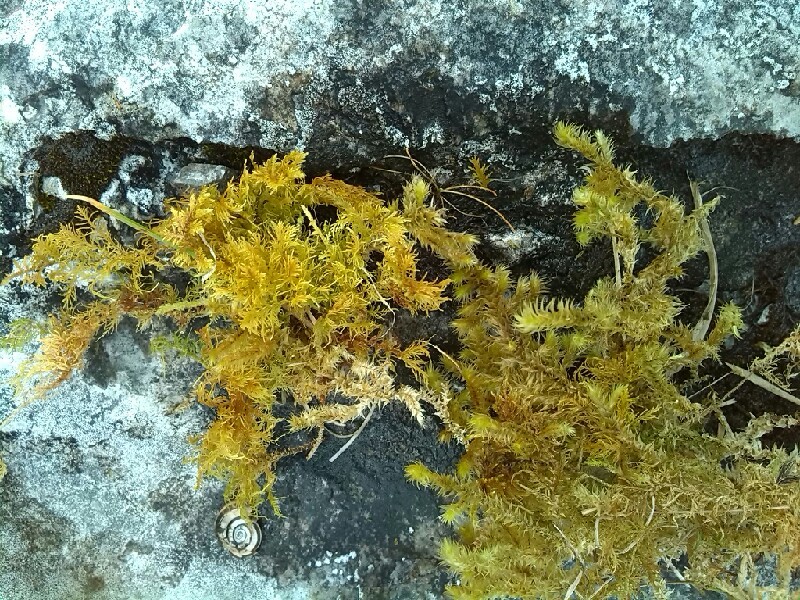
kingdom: Plantae
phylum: Bryophyta
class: Bryopsida
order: Hypnales
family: Hylocomiaceae
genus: Hylocomiadelphus
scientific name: Hylocomiadelphus triquetrus
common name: Rough goose neck moss
